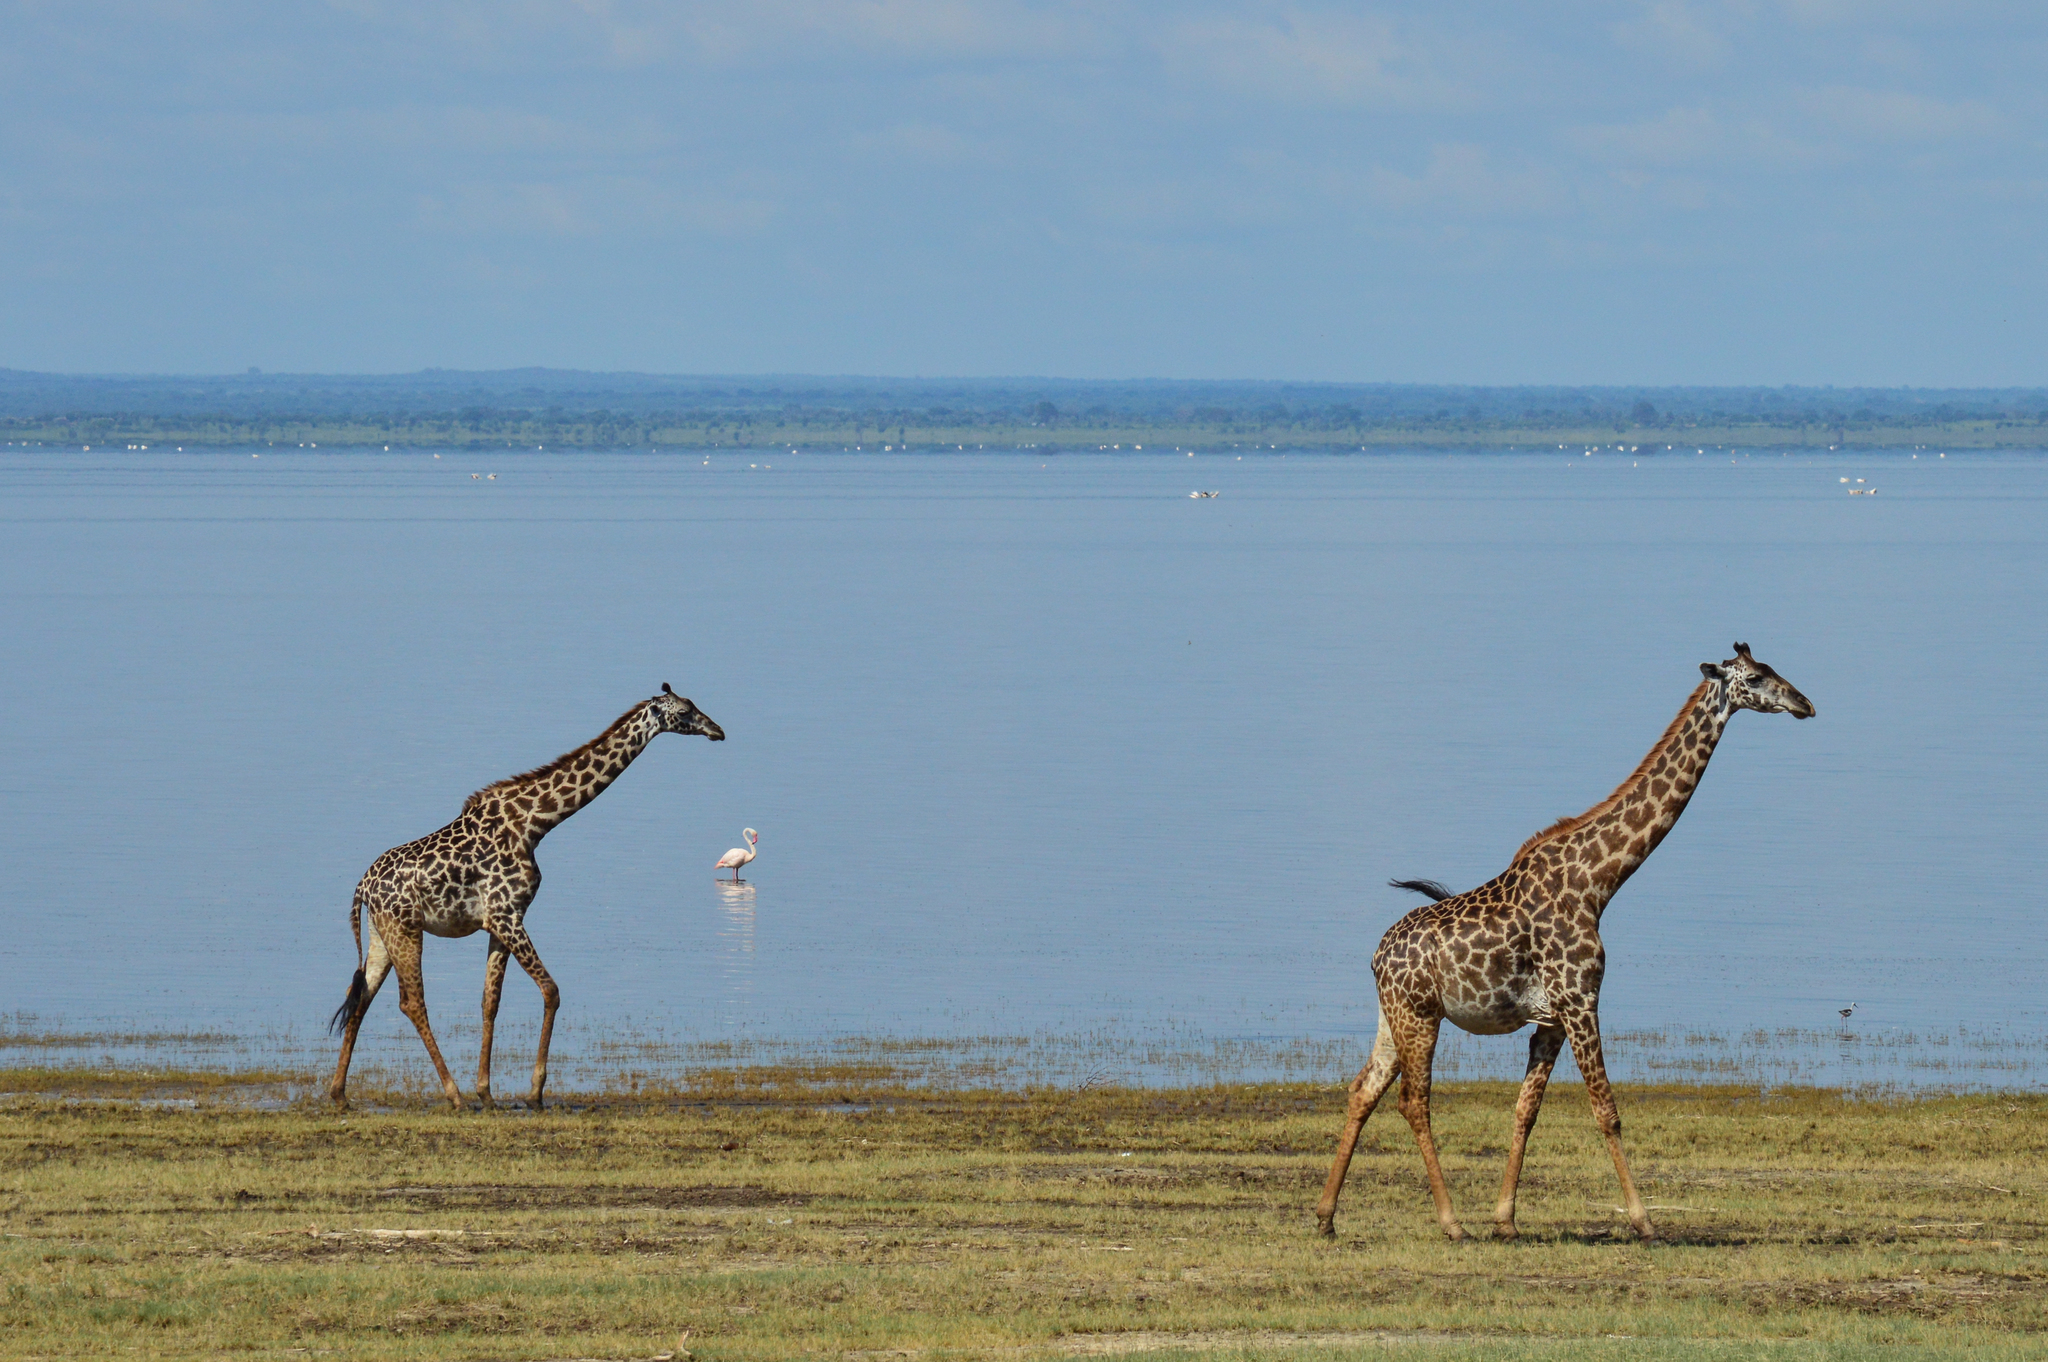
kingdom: Animalia
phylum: Chordata
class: Mammalia
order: Artiodactyla
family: Giraffidae
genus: Giraffa
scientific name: Giraffa tippelskirchi
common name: Masai giraffe
